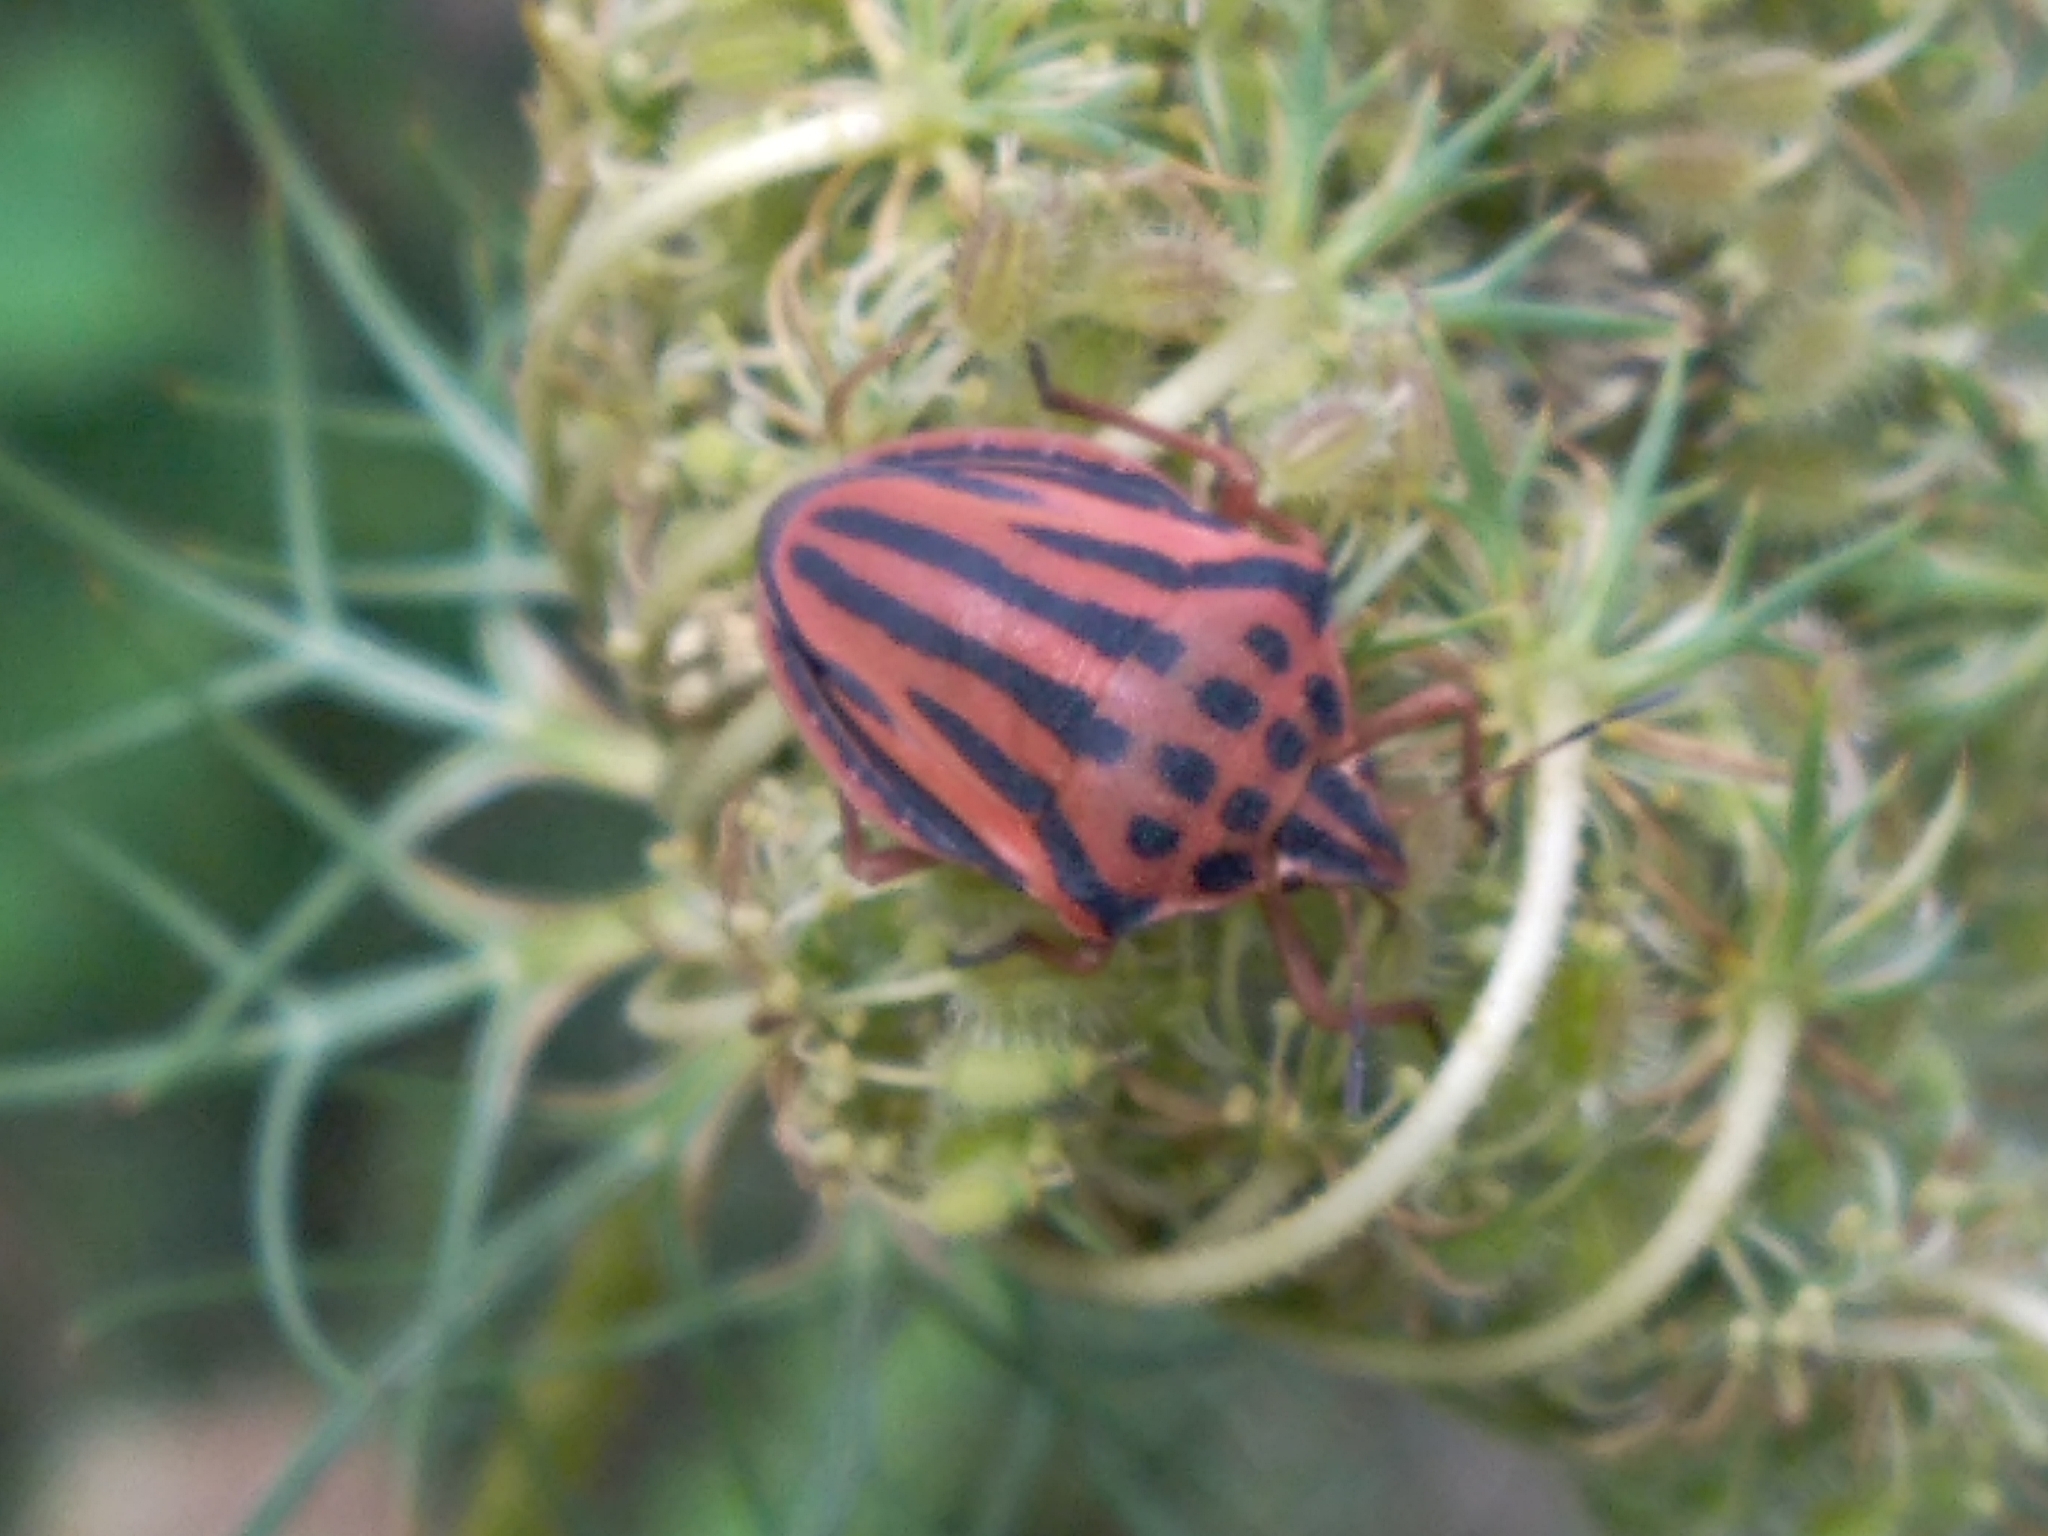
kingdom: Animalia
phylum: Arthropoda
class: Insecta
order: Hemiptera
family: Pentatomidae
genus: Graphosoma
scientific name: Graphosoma semipunctatum
